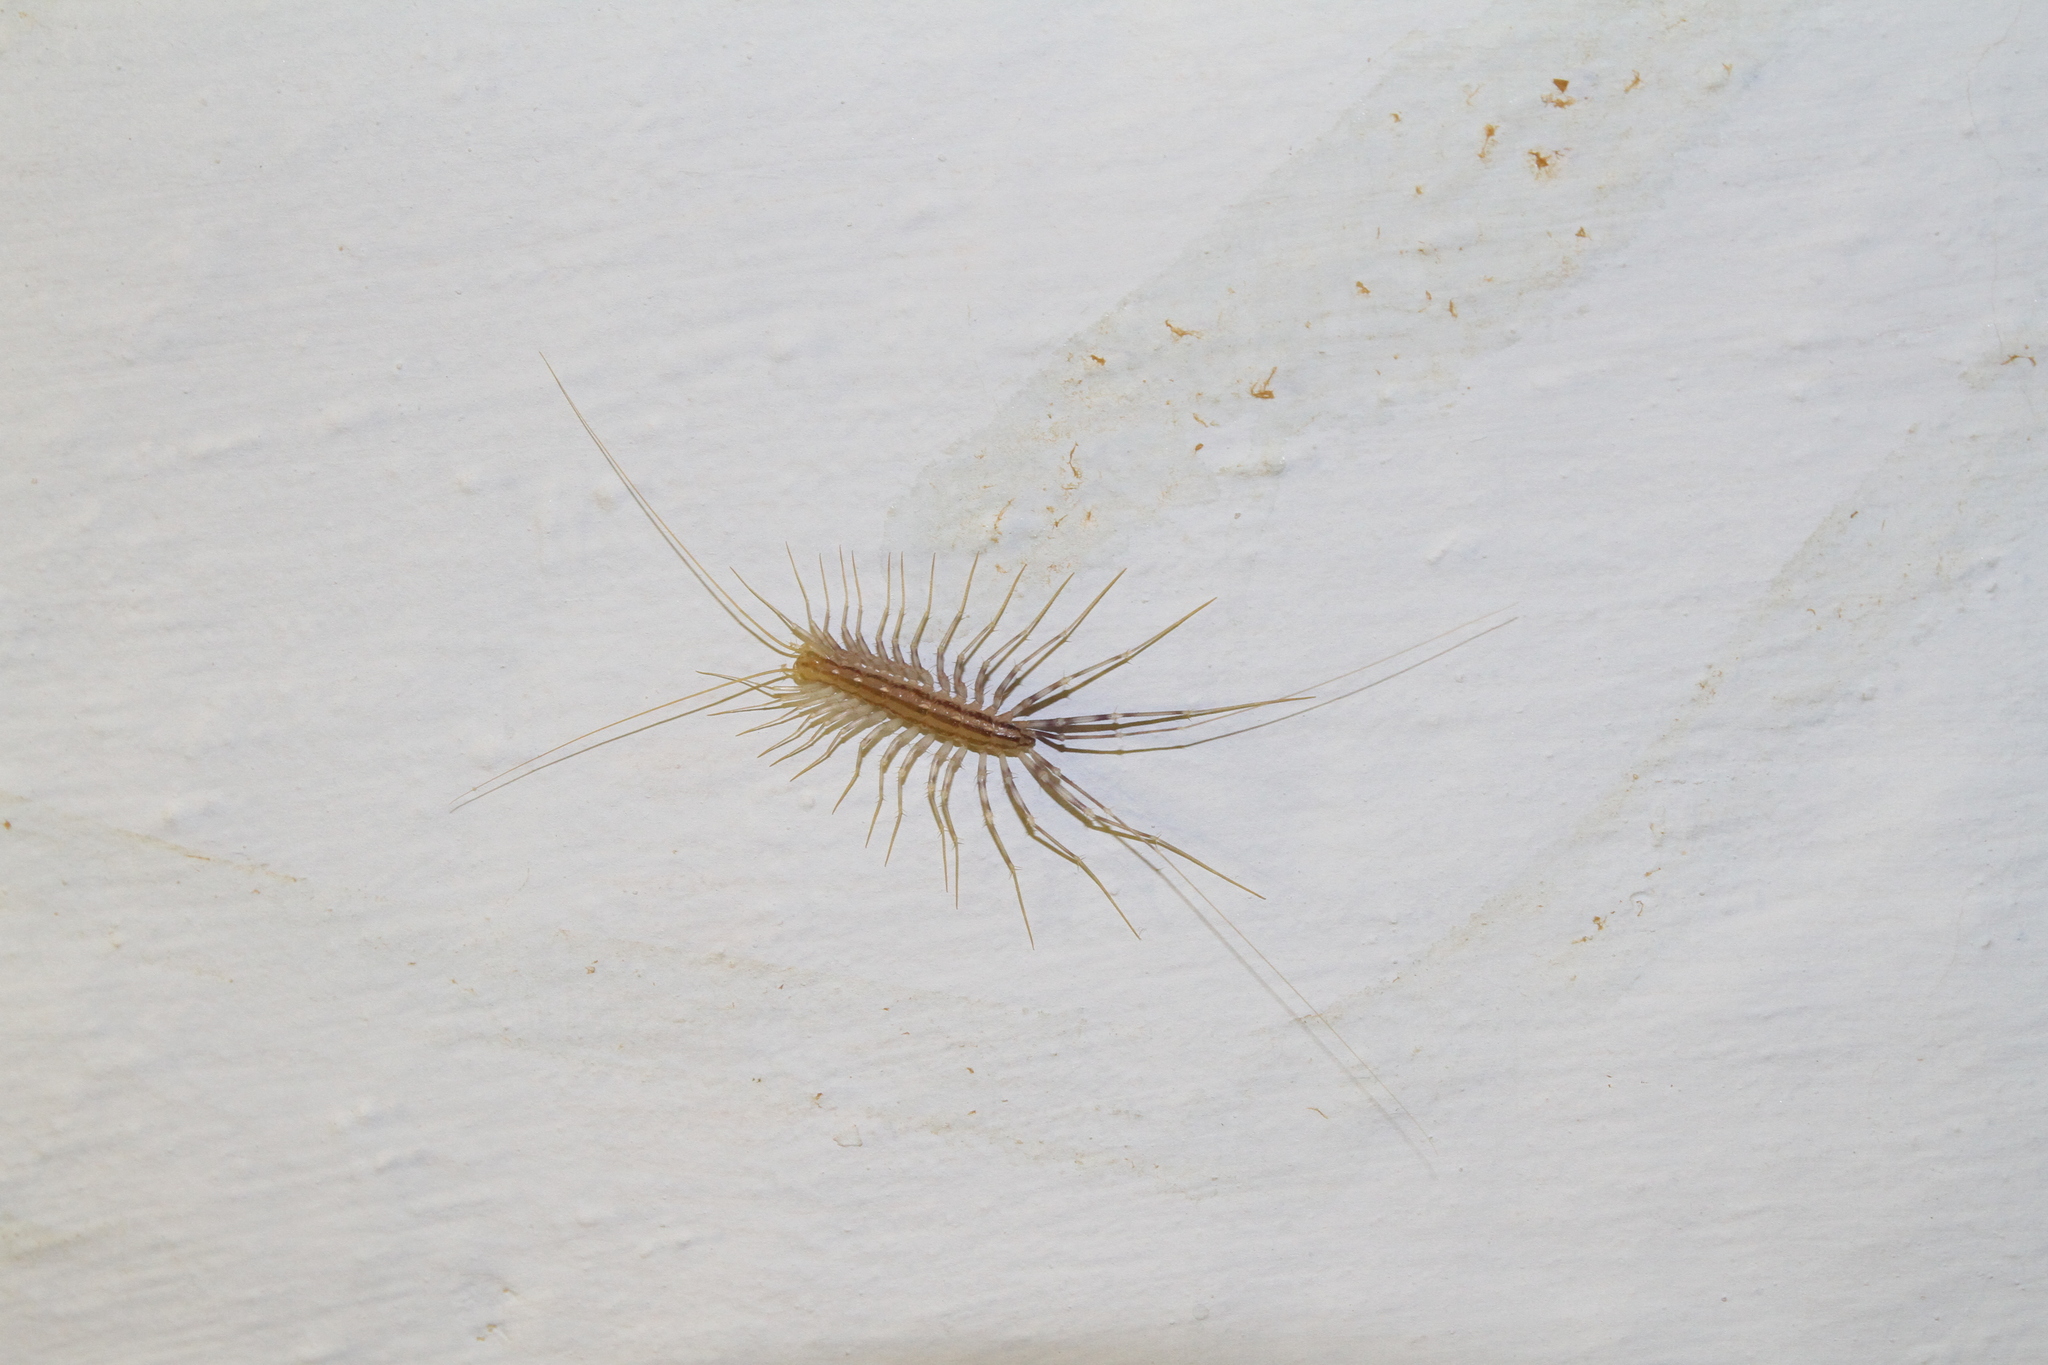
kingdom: Animalia
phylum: Arthropoda
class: Chilopoda
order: Scutigeromorpha
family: Scutigeridae
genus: Scutigera
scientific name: Scutigera coleoptrata
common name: House centipede
